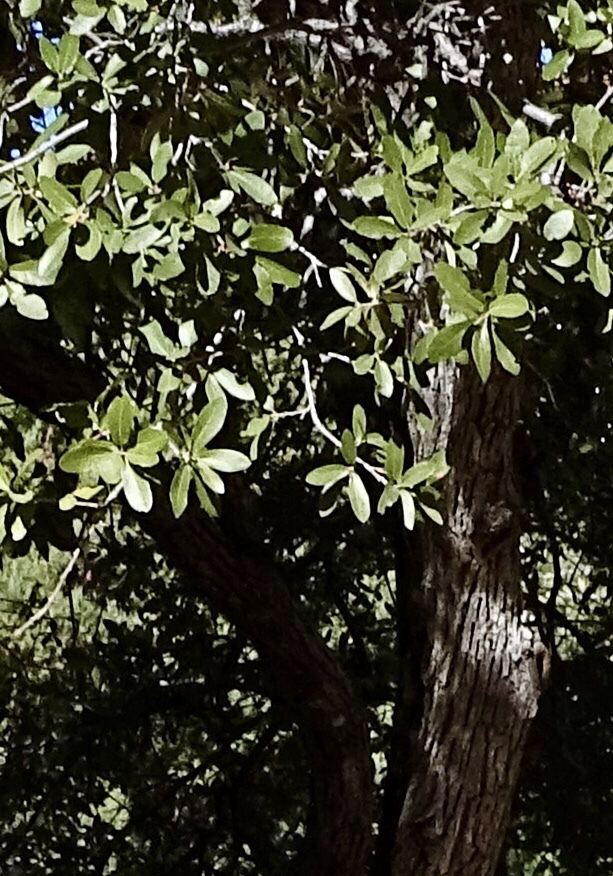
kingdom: Plantae
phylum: Tracheophyta
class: Magnoliopsida
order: Fagales
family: Fagaceae
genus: Quercus
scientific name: Quercus arizonica
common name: Arizona white oak
